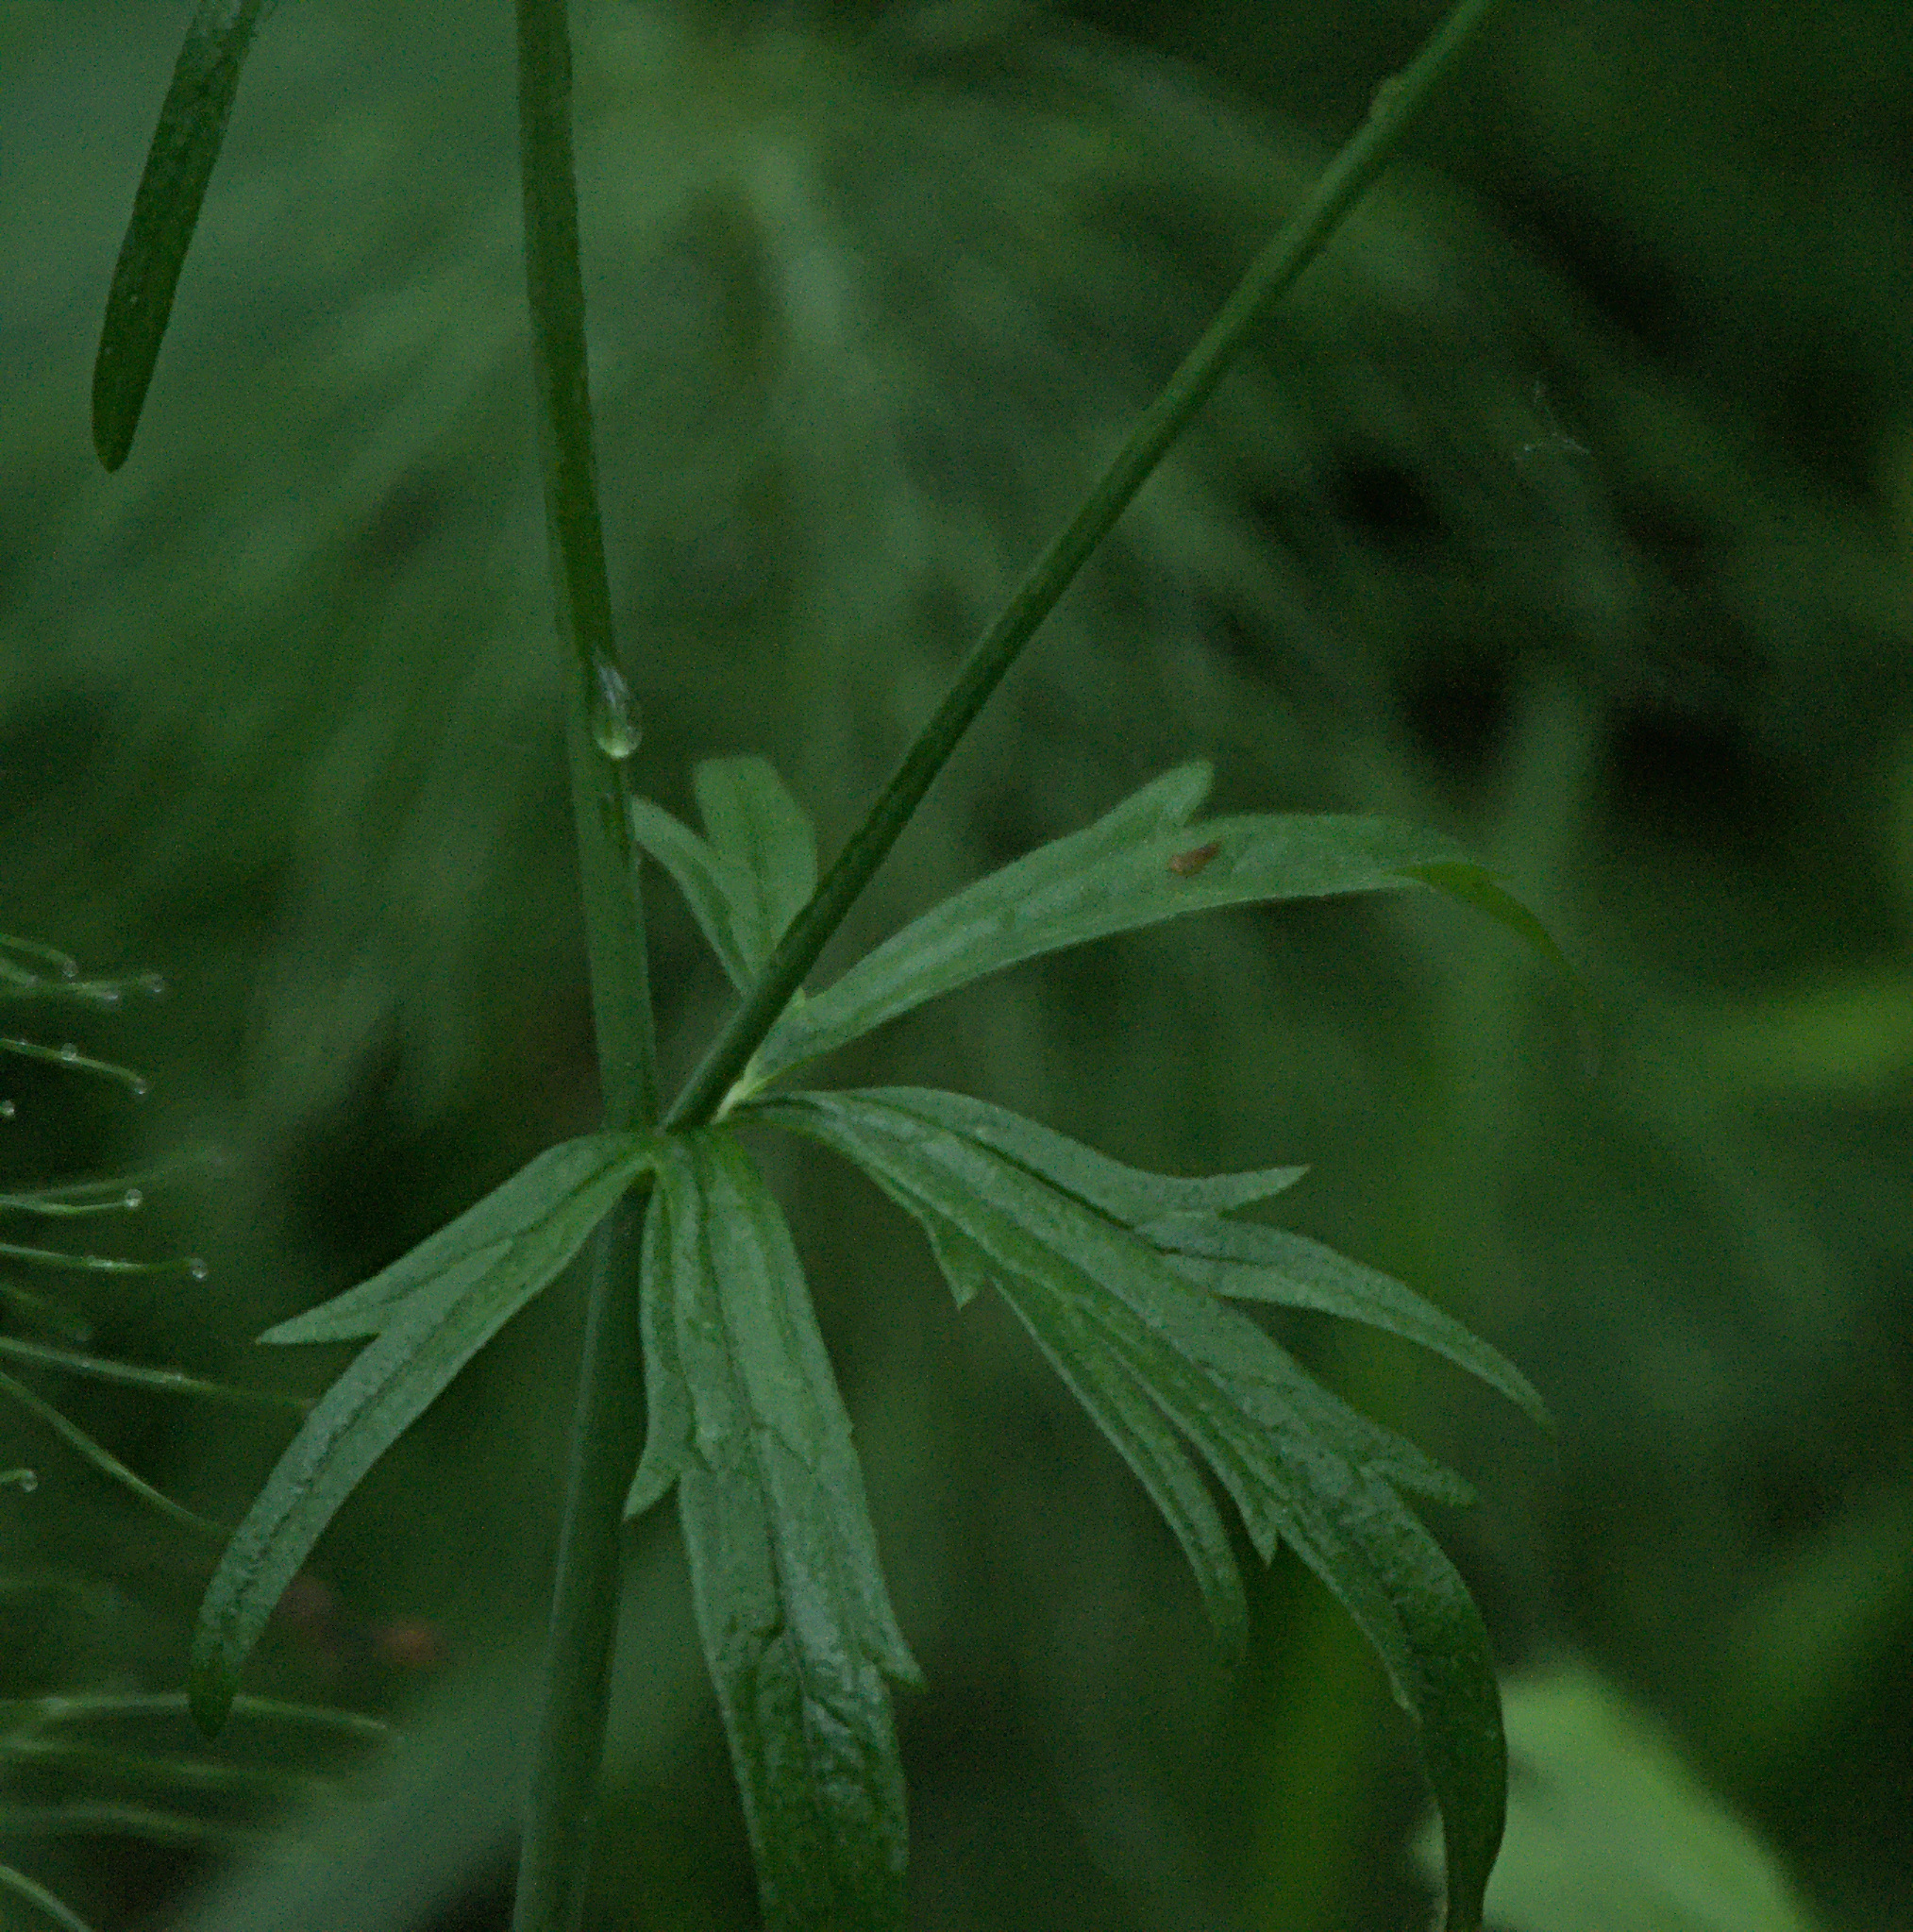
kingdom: Plantae
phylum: Tracheophyta
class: Magnoliopsida
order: Ranunculales
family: Ranunculaceae
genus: Ranunculus
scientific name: Ranunculus acris
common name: Meadow buttercup
